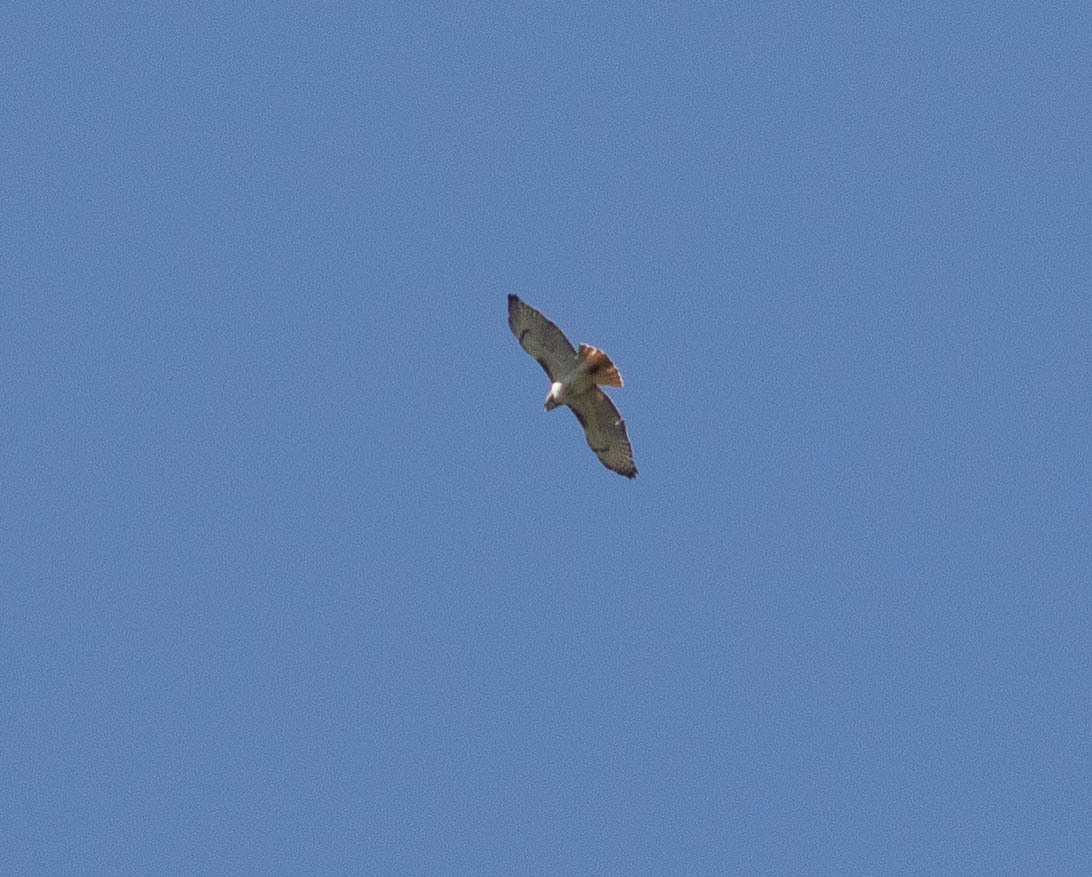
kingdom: Animalia
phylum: Chordata
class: Aves
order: Accipitriformes
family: Accipitridae
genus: Buteo
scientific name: Buteo jamaicensis
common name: Red-tailed hawk
